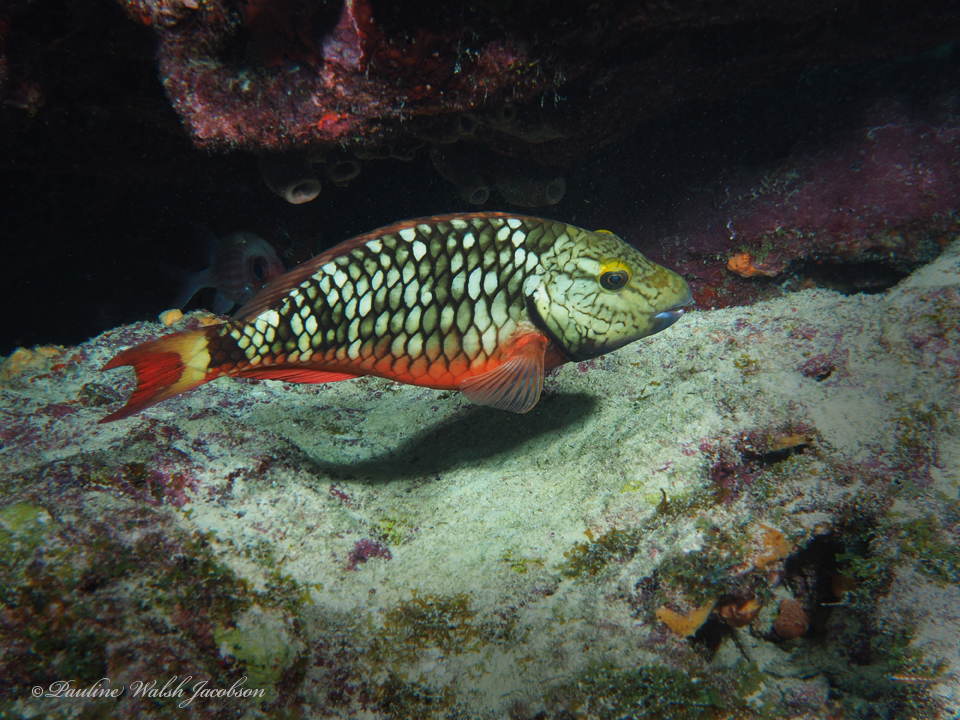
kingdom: Animalia
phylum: Chordata
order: Perciformes
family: Scaridae
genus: Sparisoma
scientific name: Sparisoma viride
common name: Stoplight parrotfish
